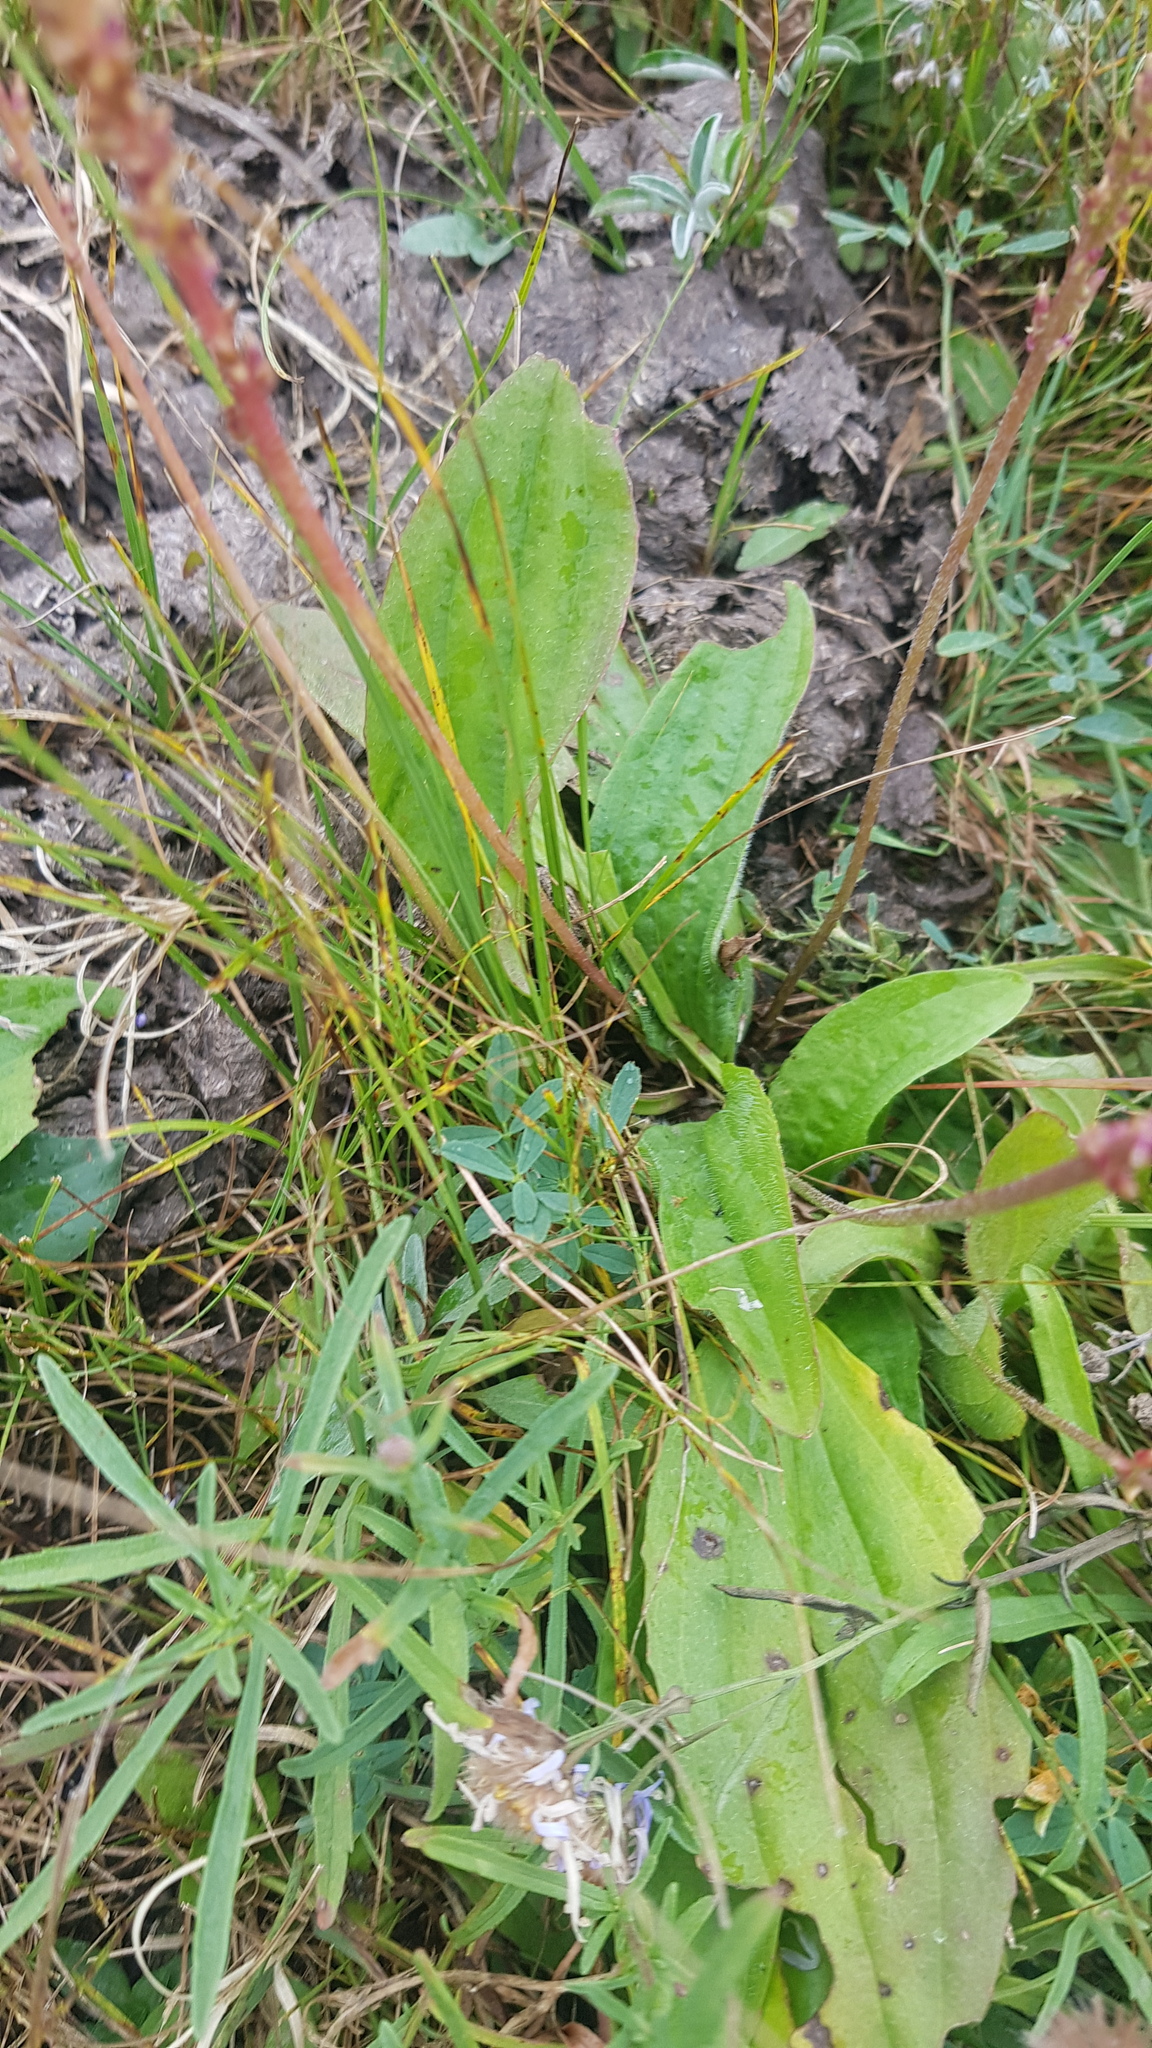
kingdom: Plantae
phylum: Tracheophyta
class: Magnoliopsida
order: Lamiales
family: Plantaginaceae
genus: Plantago
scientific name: Plantago depressa
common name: Depressed plantain
